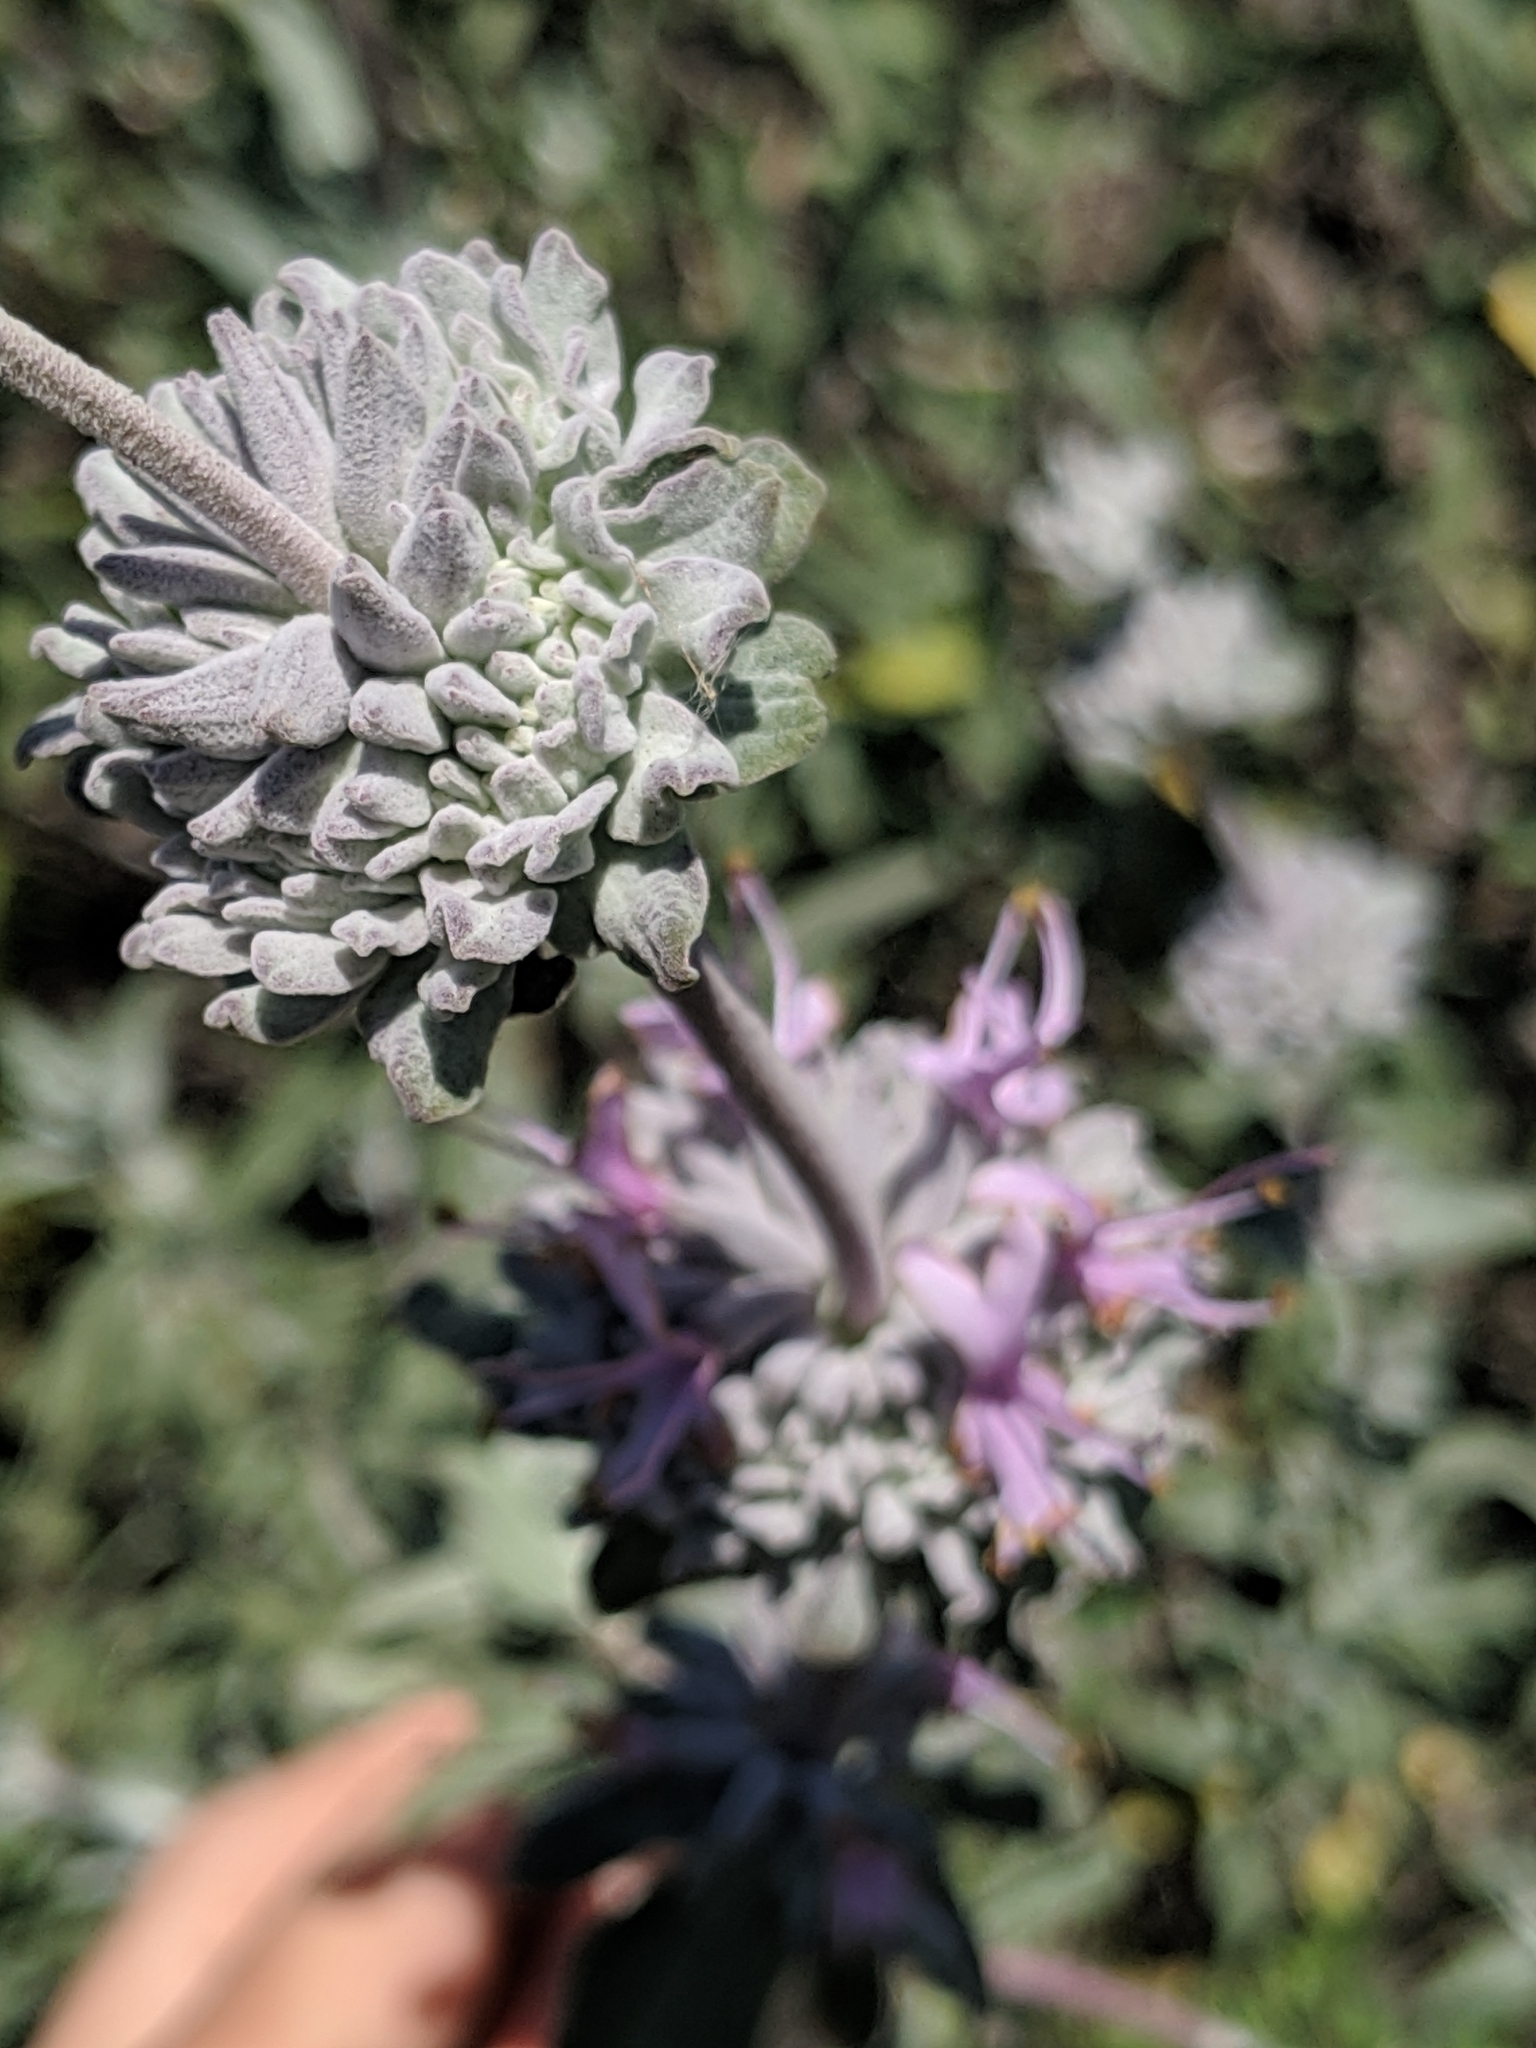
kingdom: Plantae
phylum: Tracheophyta
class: Magnoliopsida
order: Lamiales
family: Lamiaceae
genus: Salvia
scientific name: Salvia leucophylla
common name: Purple sage
